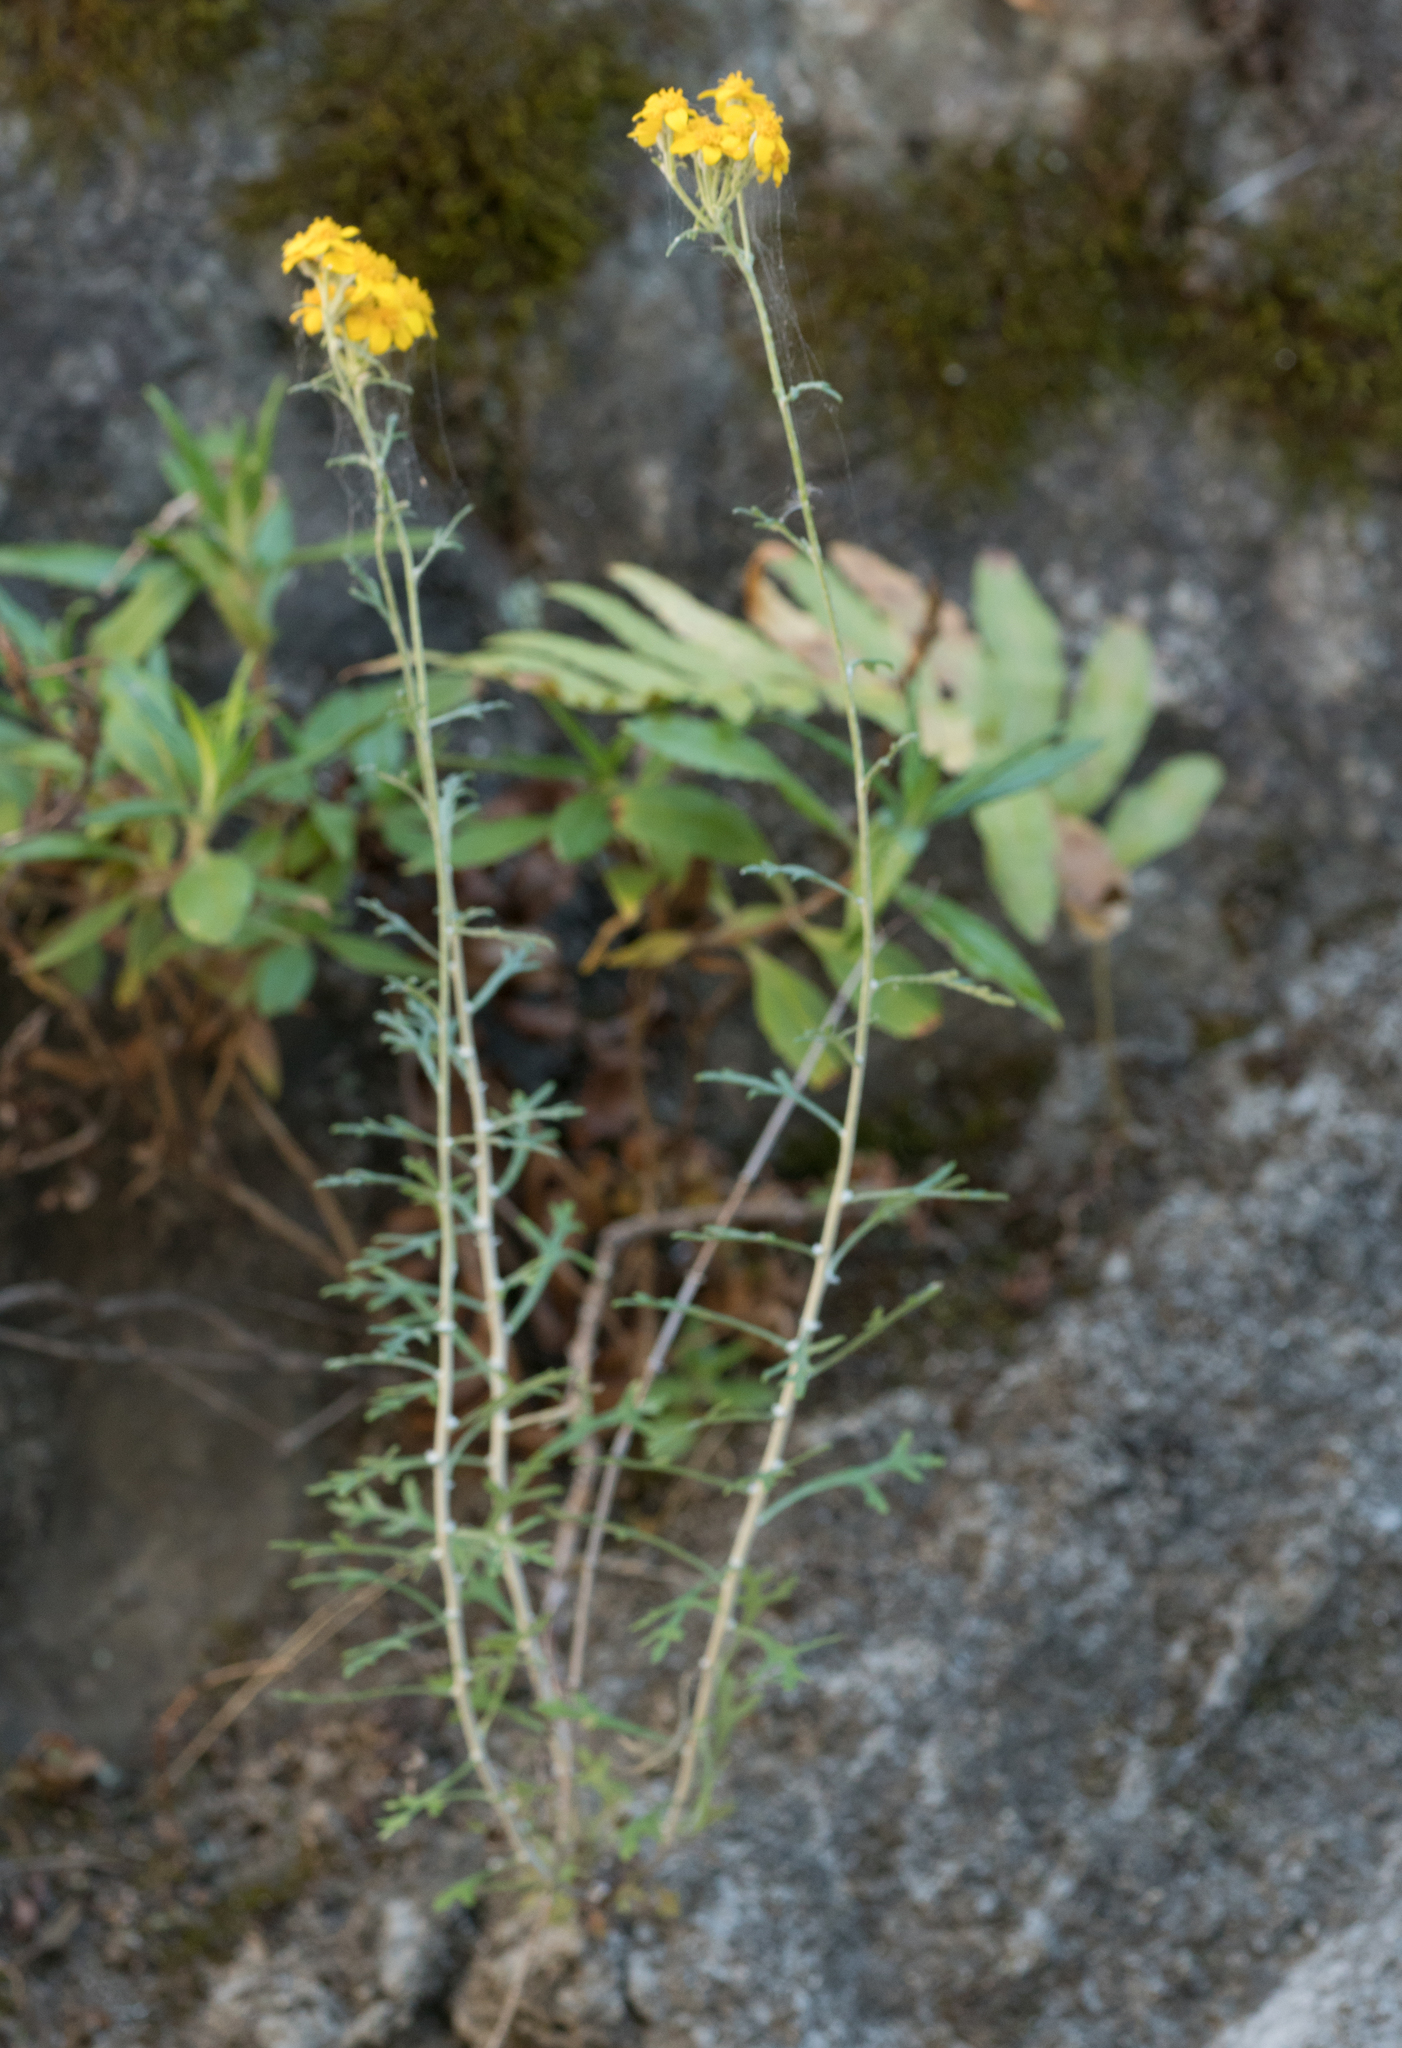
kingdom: Plantae
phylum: Tracheophyta
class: Magnoliopsida
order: Asterales
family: Asteraceae
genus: Eriophyllum
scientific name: Eriophyllum confertiflorum
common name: Golden-yarrow
